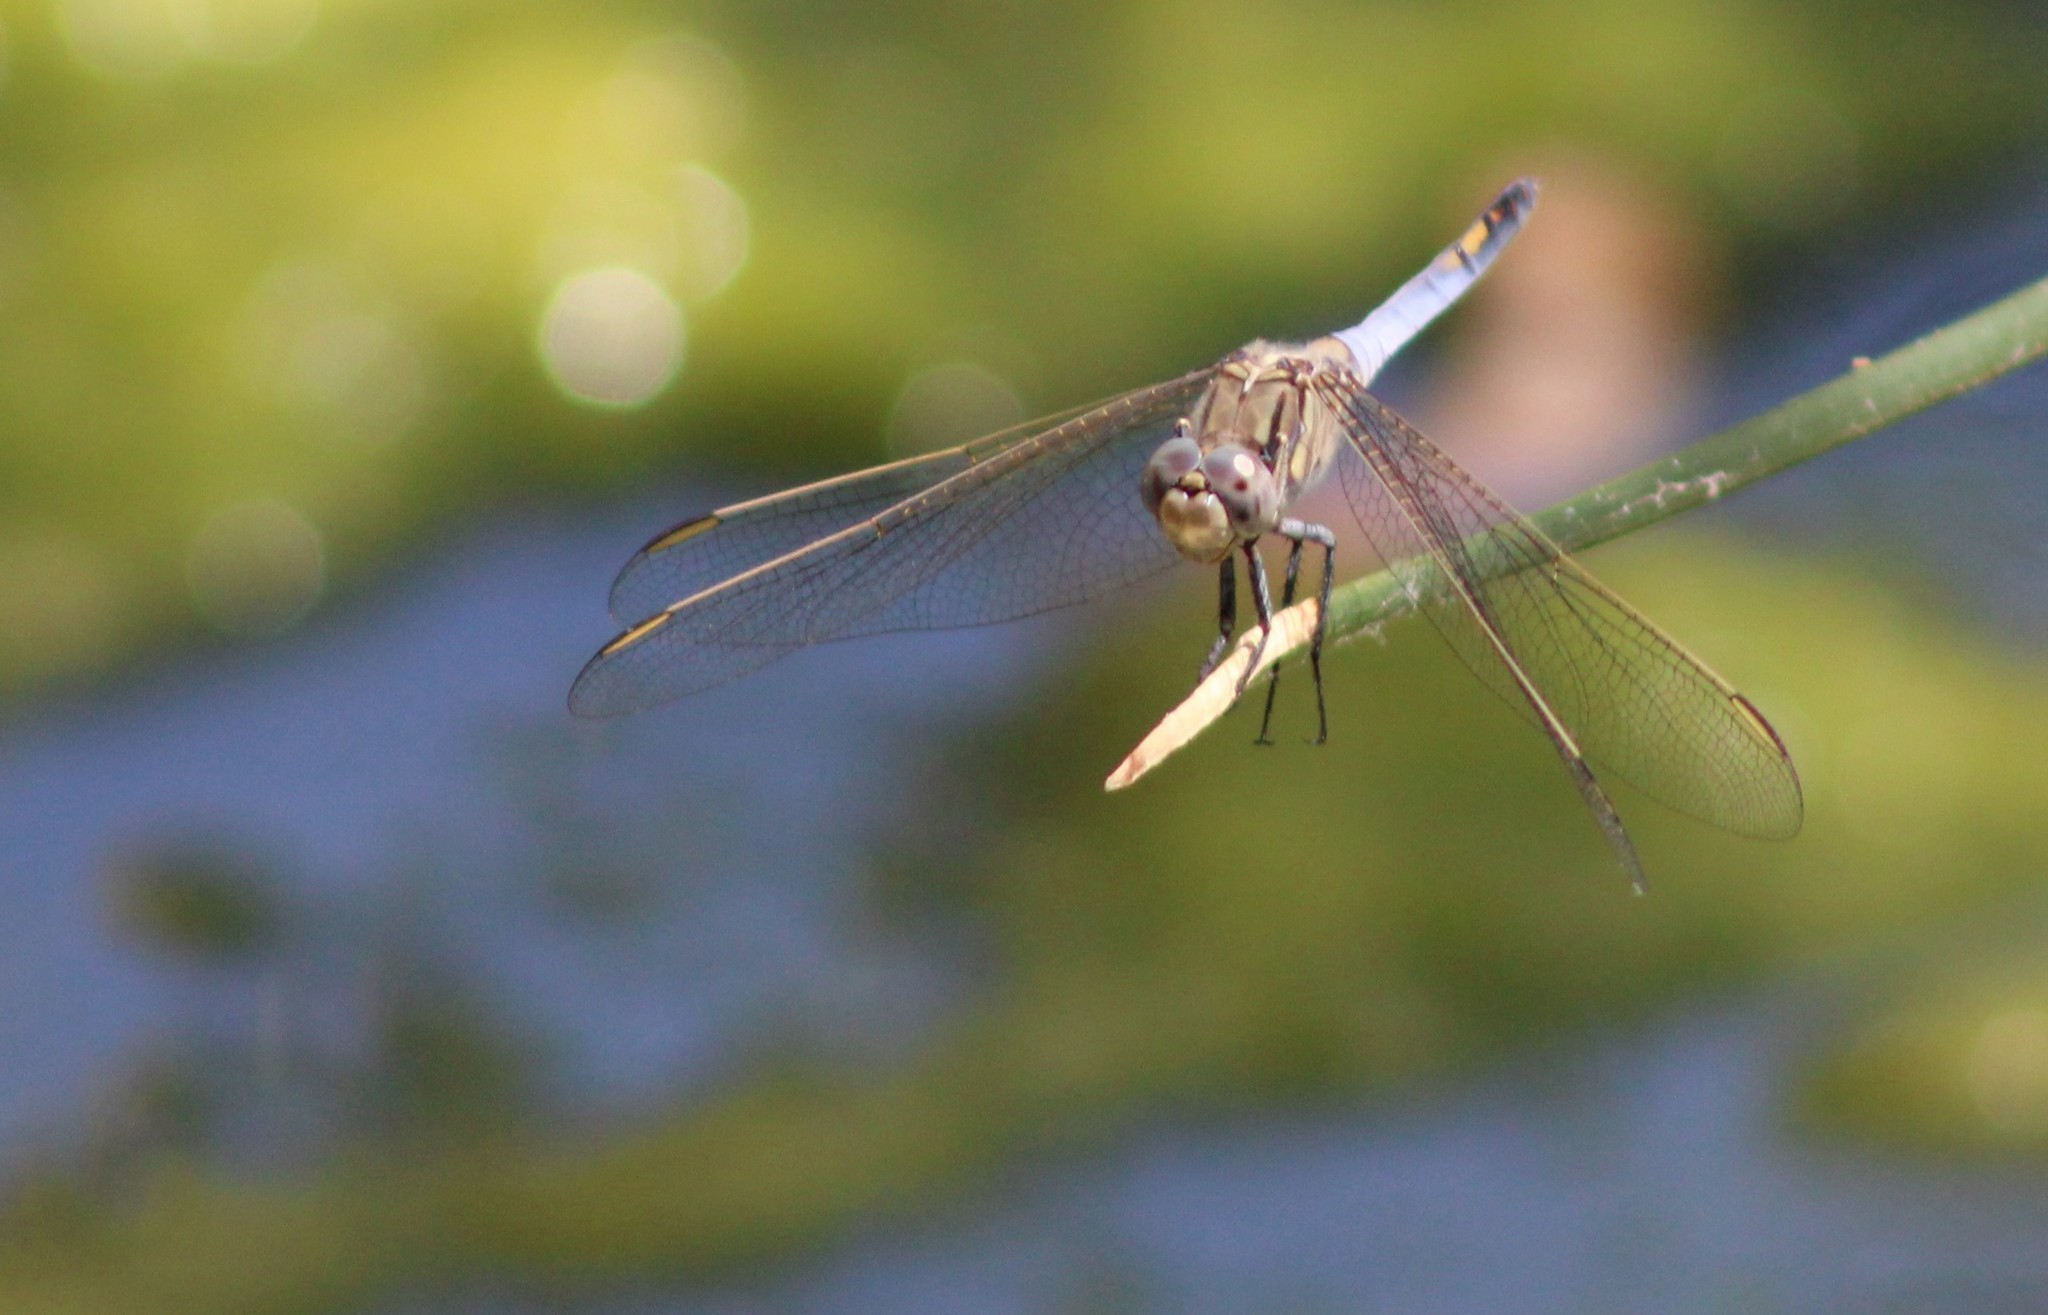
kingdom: Animalia
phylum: Arthropoda
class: Insecta
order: Odonata
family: Libellulidae
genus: Orthetrum
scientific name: Orthetrum caledonicum
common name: Blue skimmer
